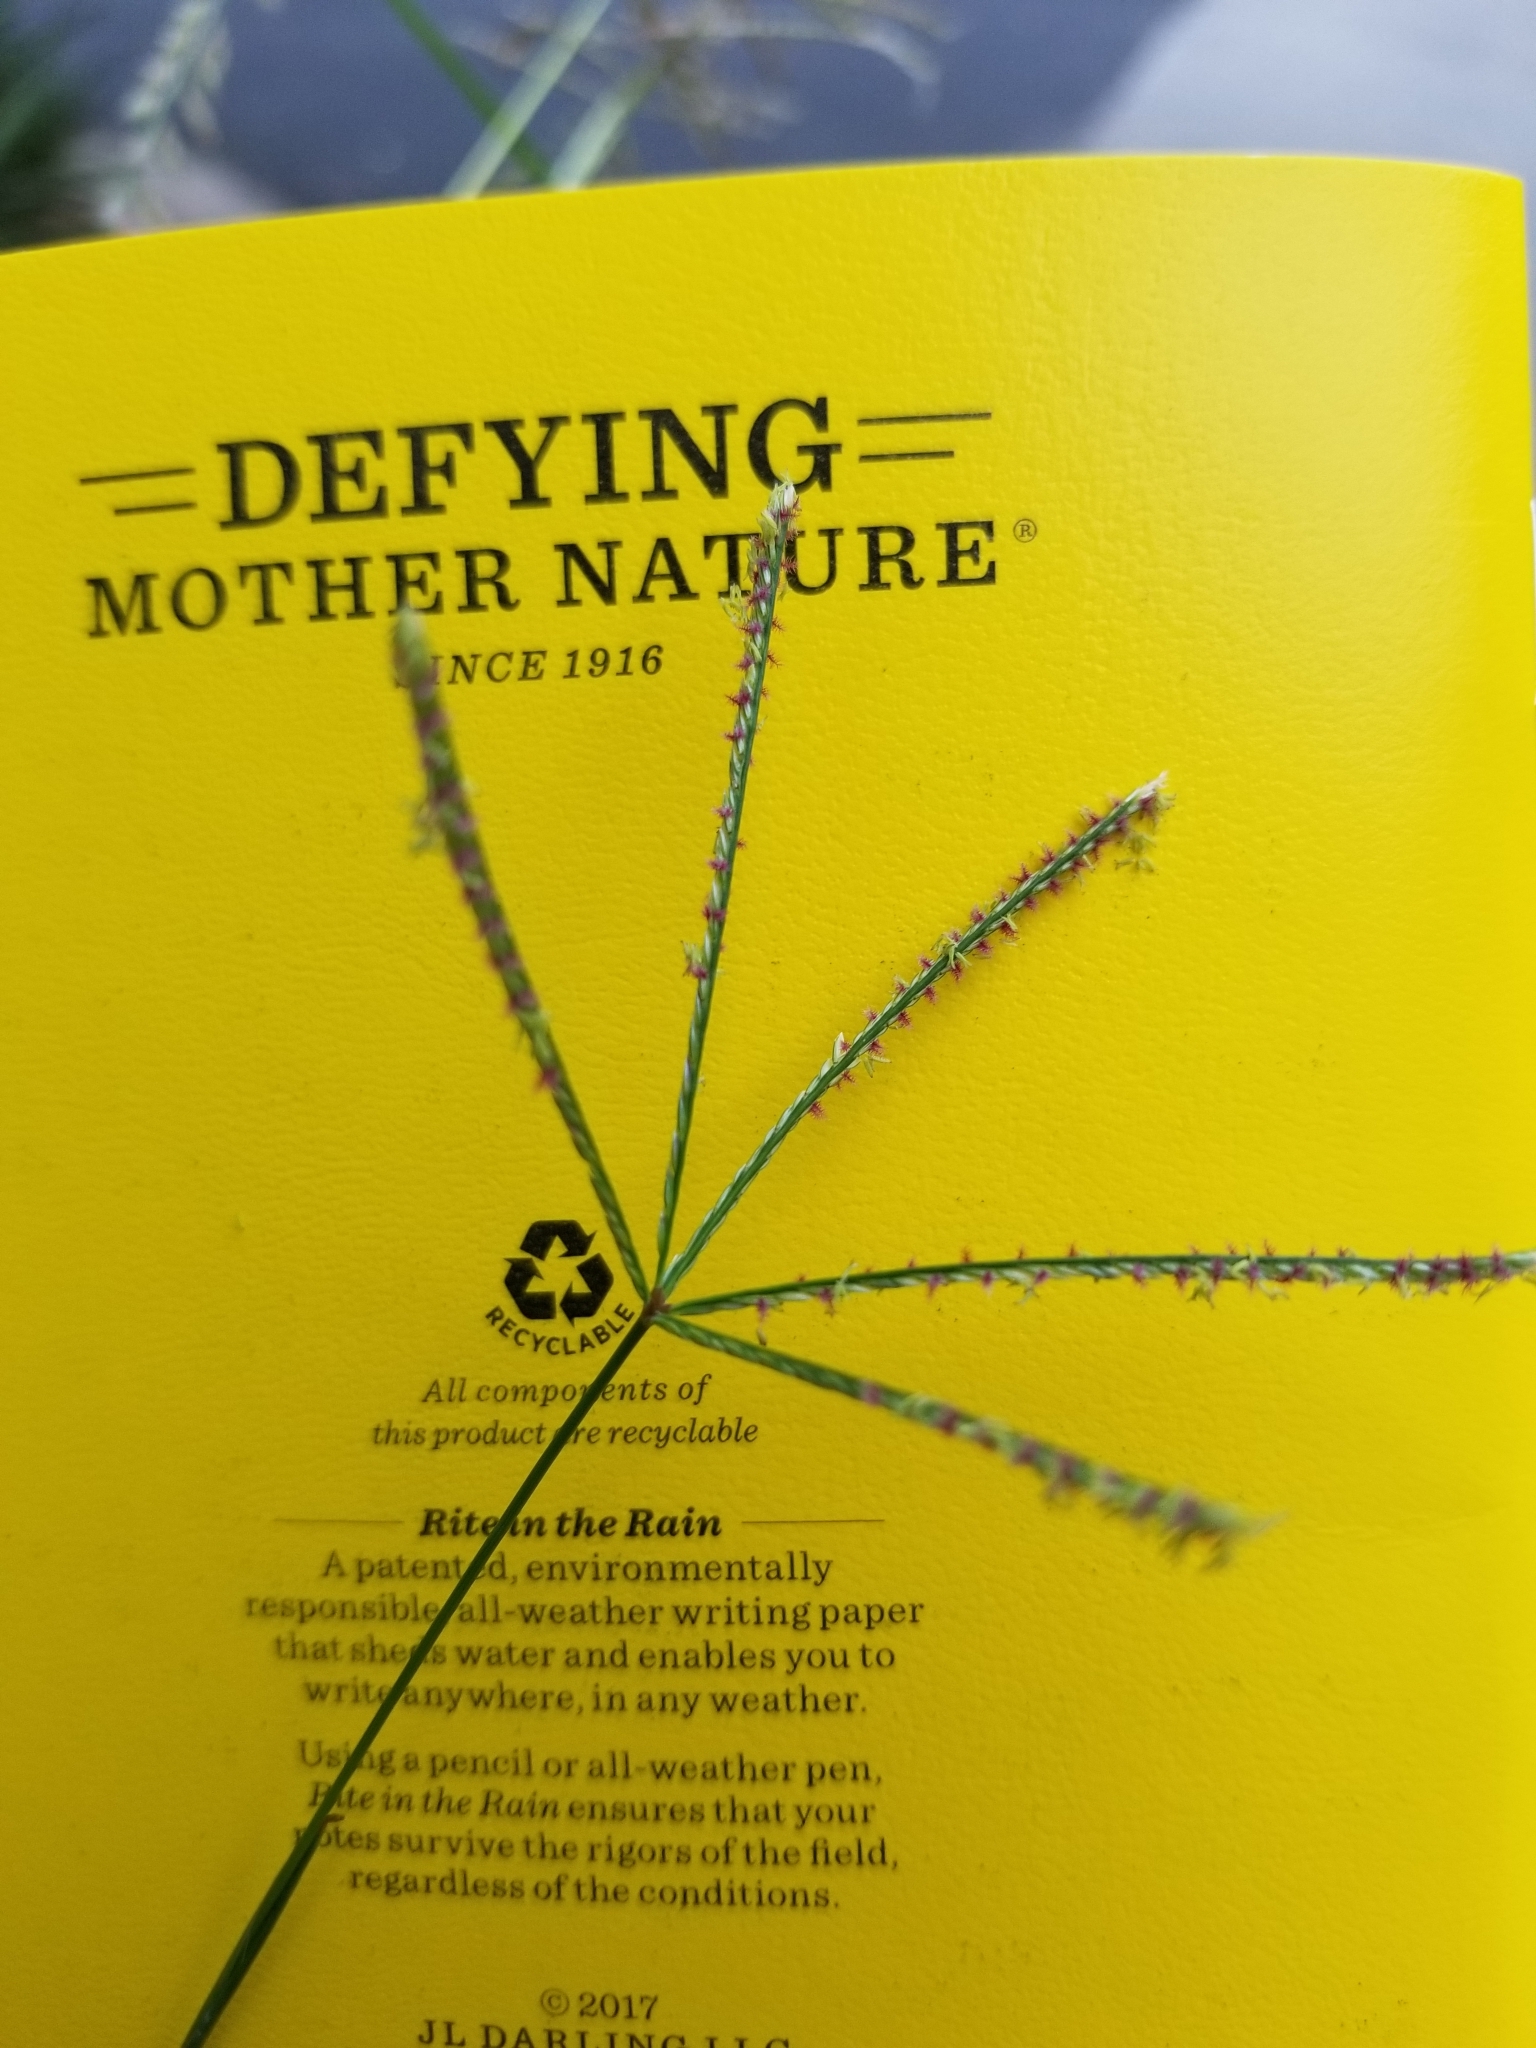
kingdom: Plantae
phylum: Tracheophyta
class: Liliopsida
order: Poales
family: Poaceae
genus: Cynodon
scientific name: Cynodon dactylon
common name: Bermuda grass
